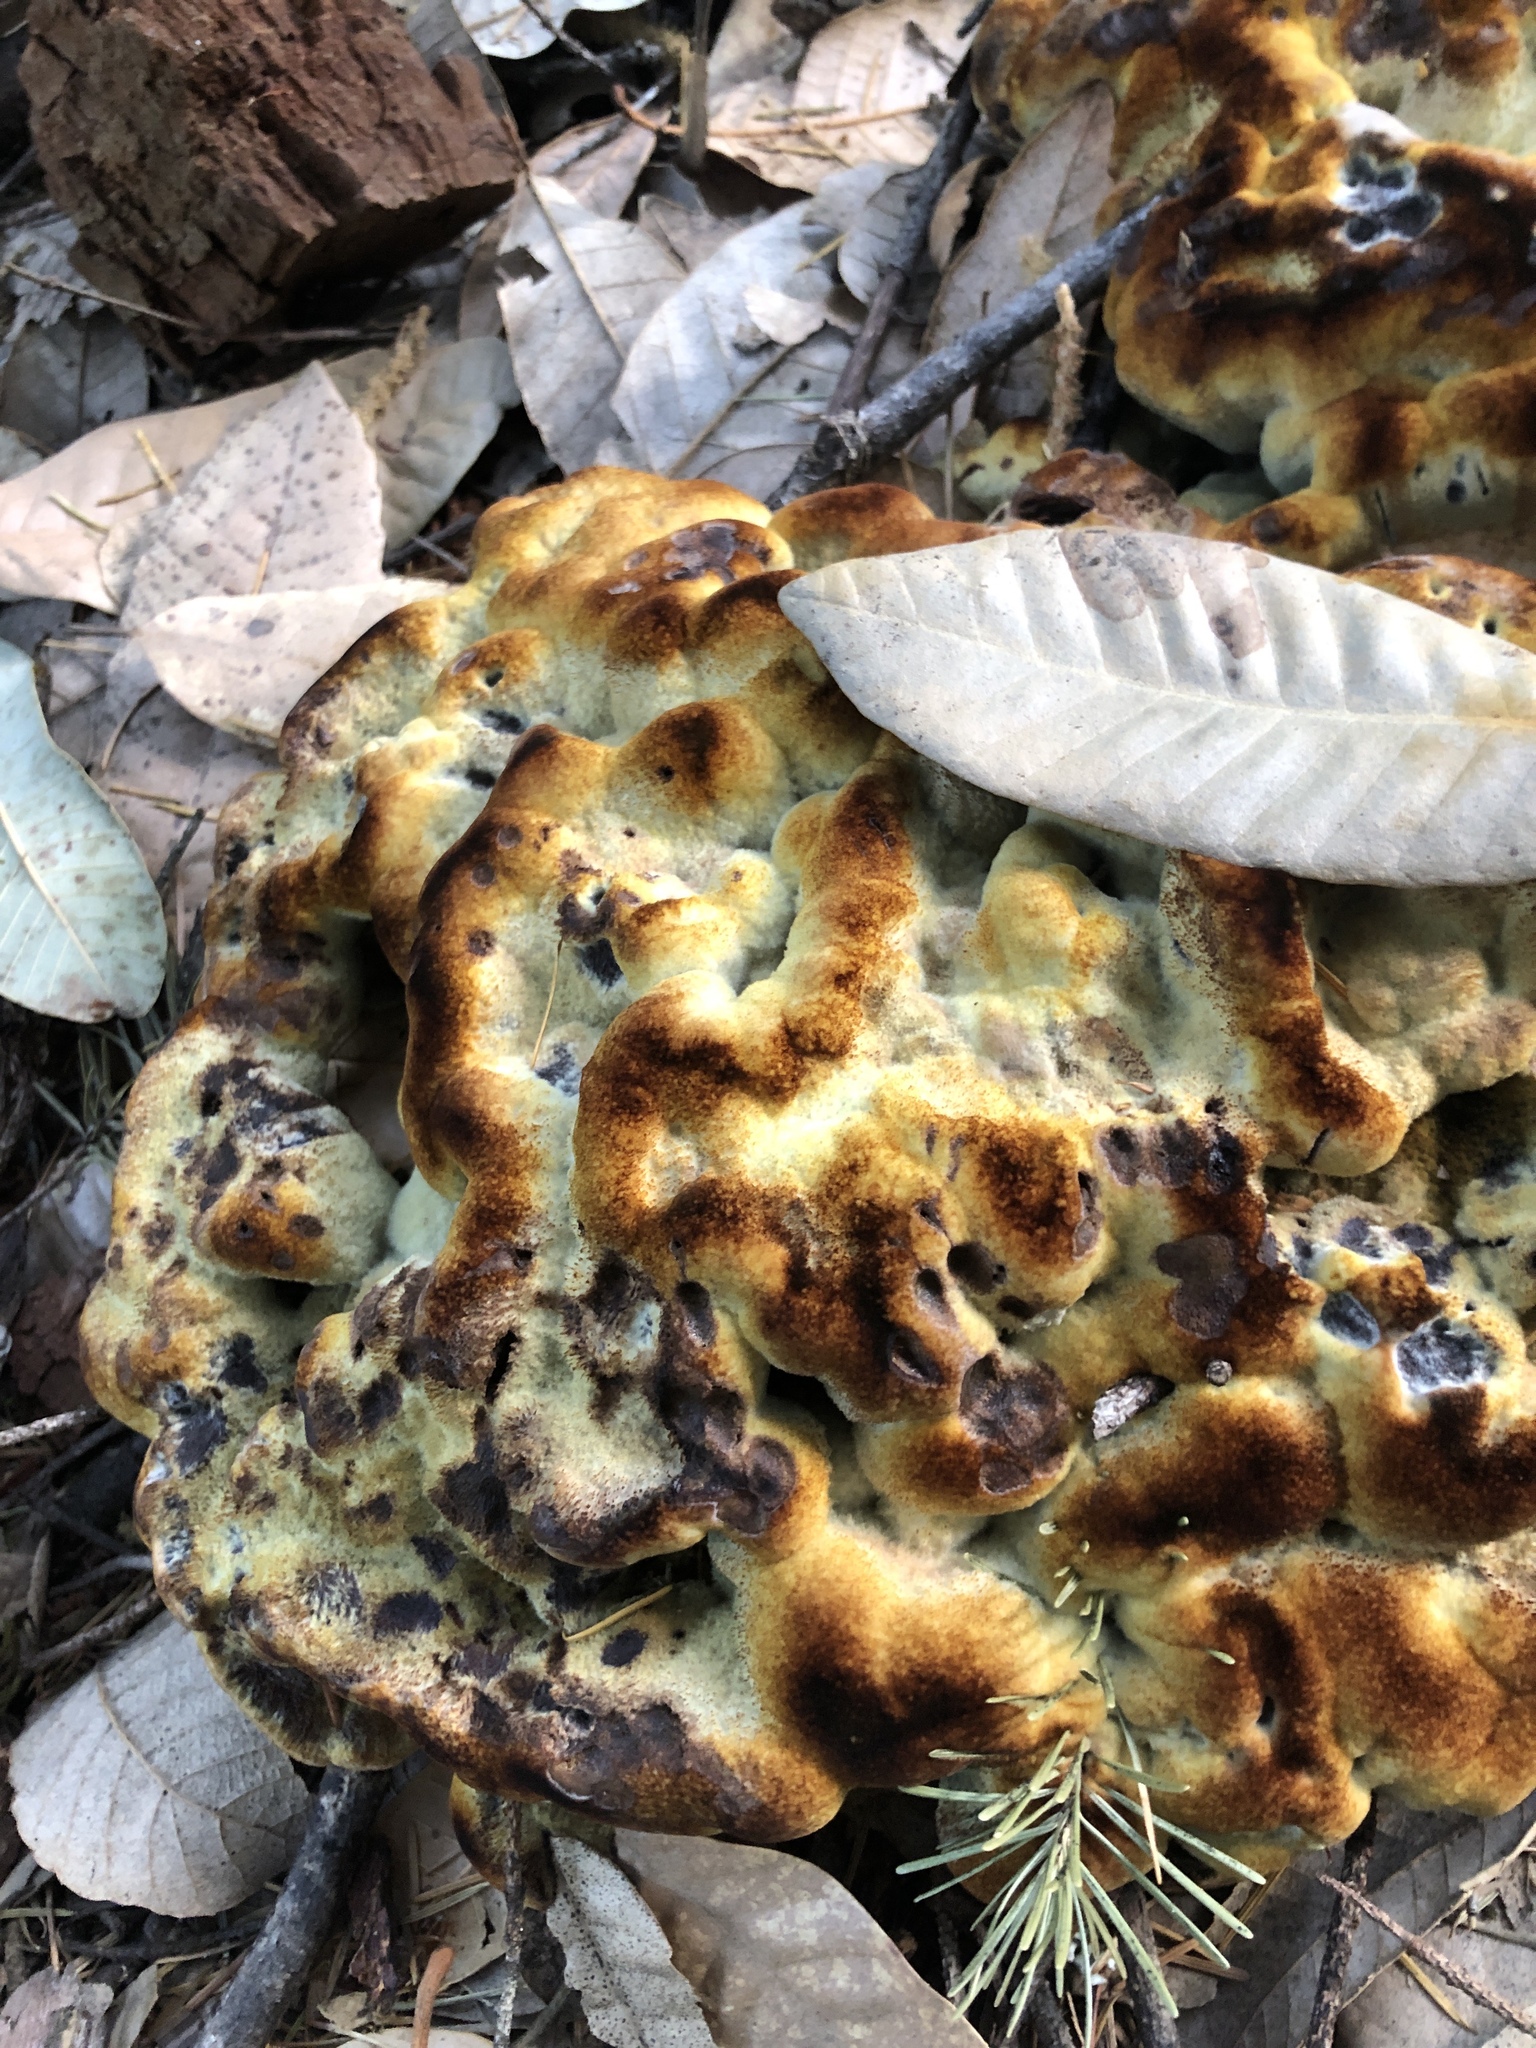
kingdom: Fungi
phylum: Basidiomycota
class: Agaricomycetes
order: Polyporales
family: Laetiporaceae
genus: Phaeolus
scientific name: Phaeolus schweinitzii
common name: Dyer's mazegill
